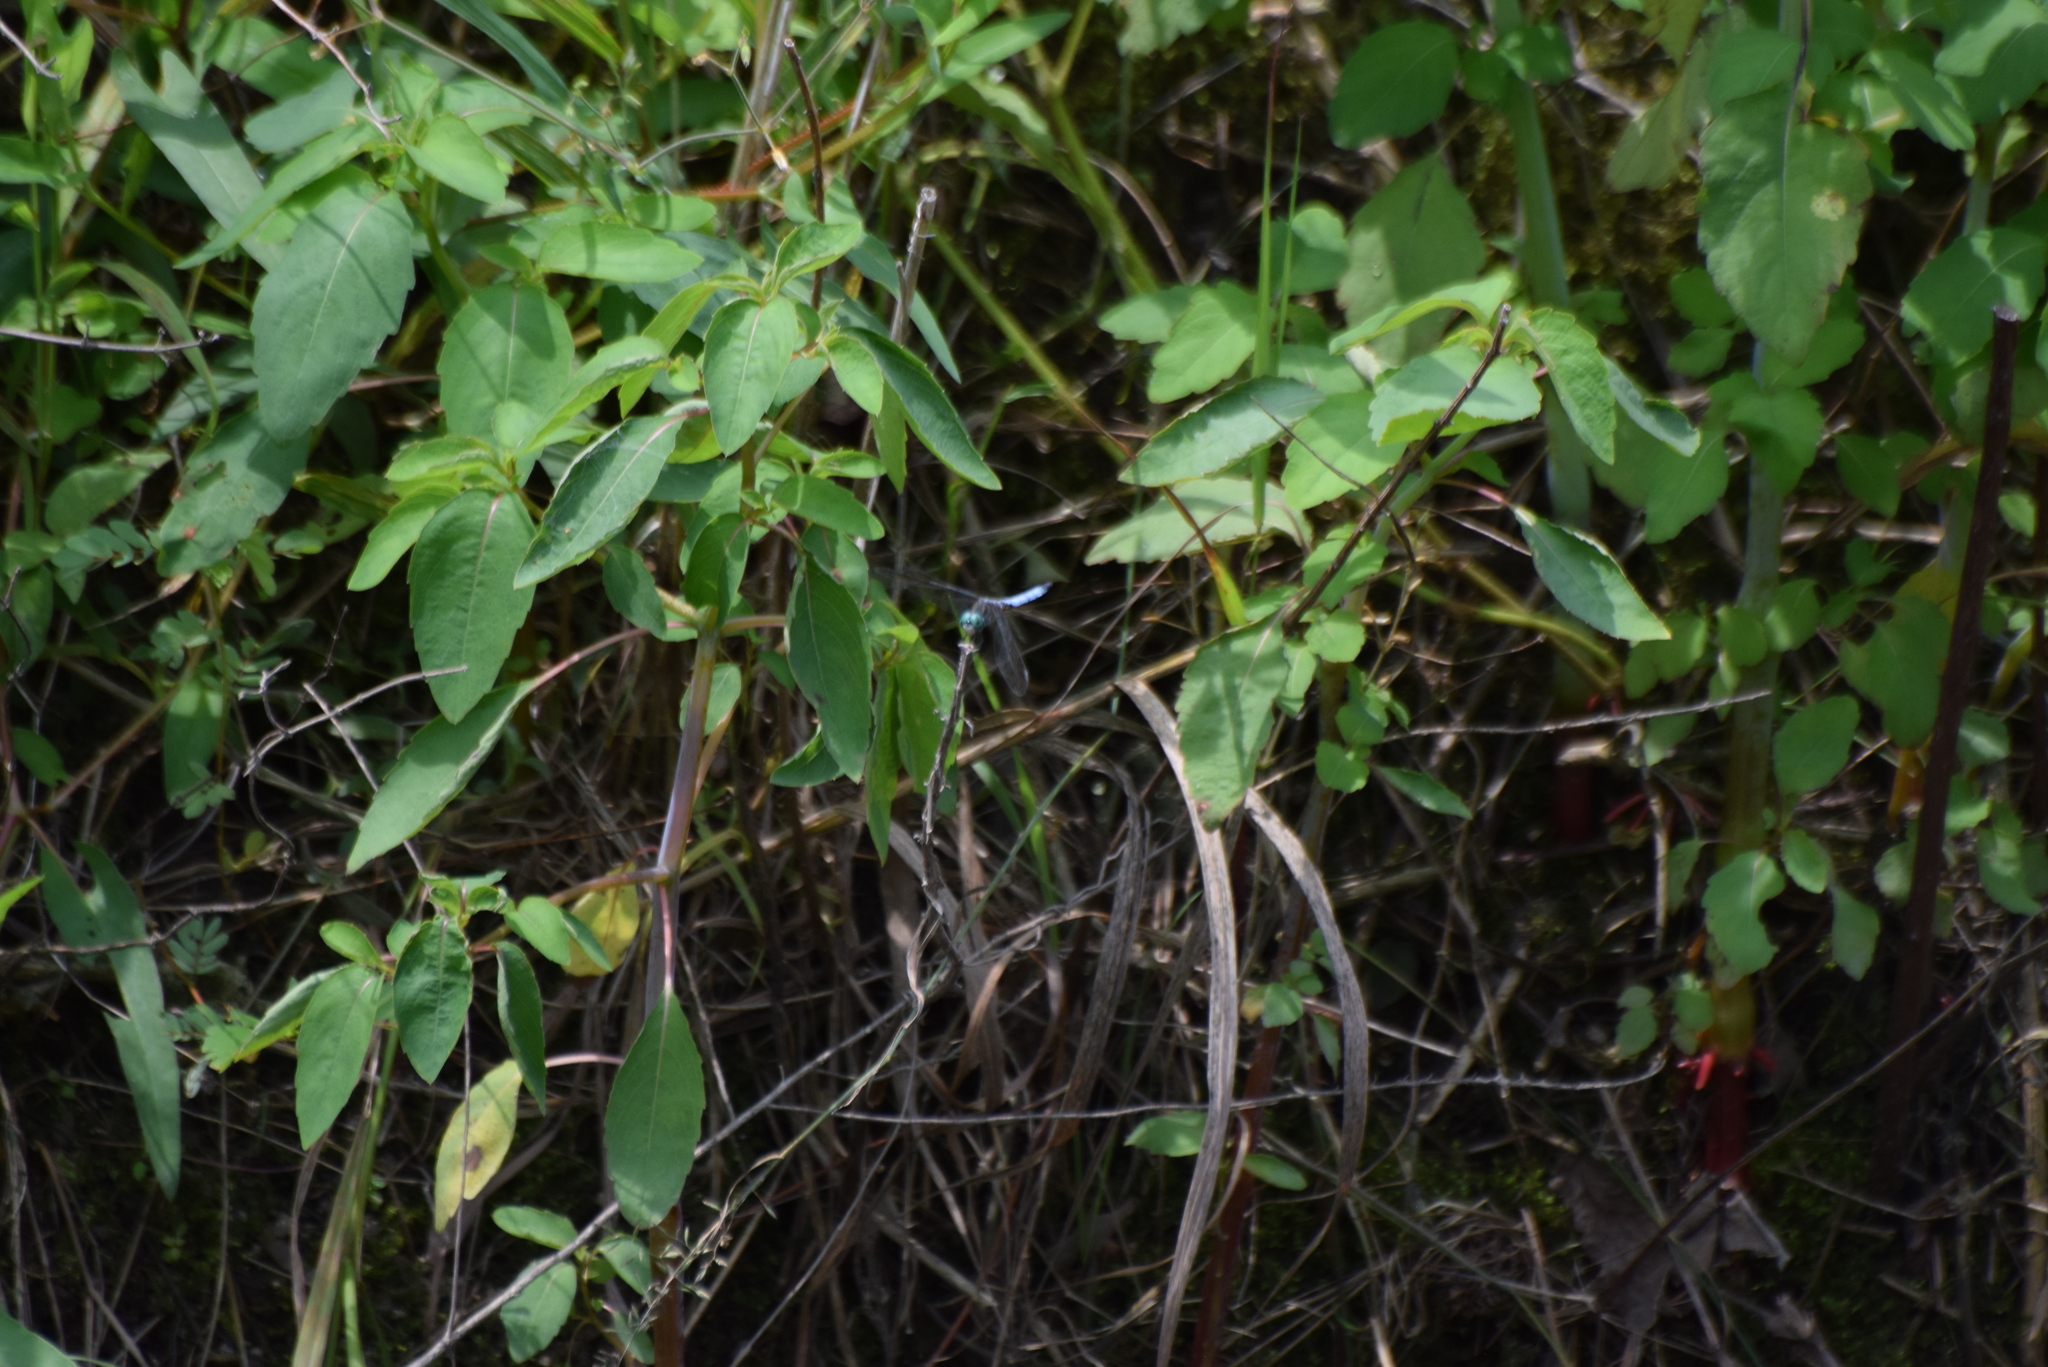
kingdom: Animalia
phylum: Arthropoda
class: Insecta
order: Odonata
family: Libellulidae
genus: Pachydiplax
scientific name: Pachydiplax longipennis
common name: Blue dasher
